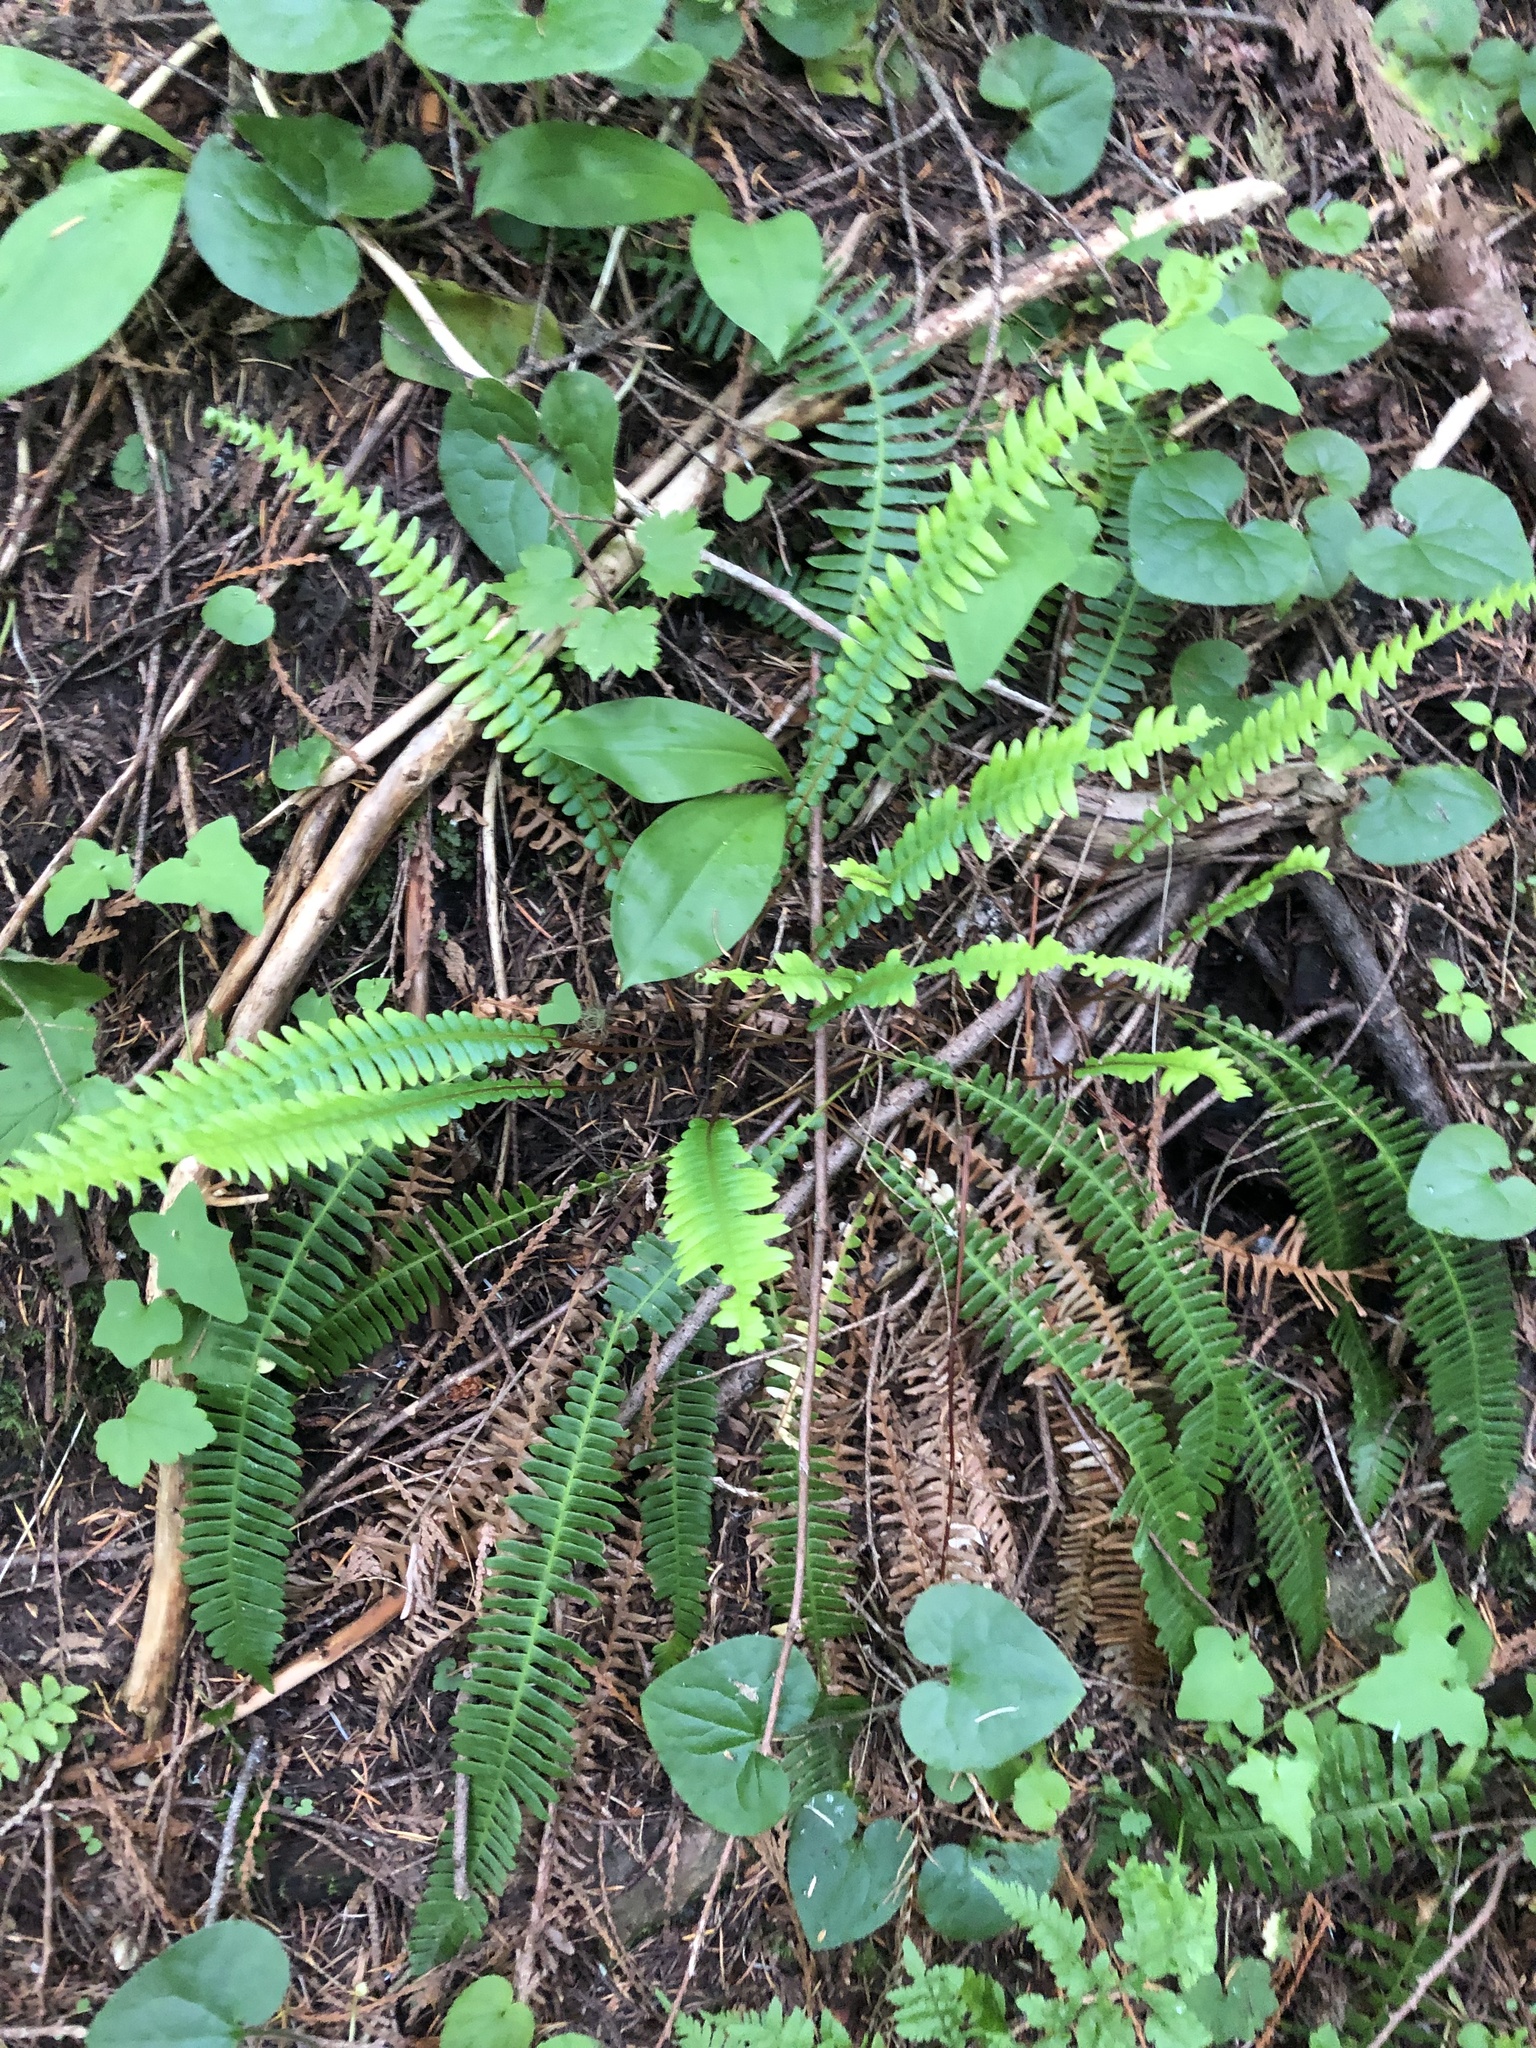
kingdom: Plantae
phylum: Tracheophyta
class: Polypodiopsida
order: Polypodiales
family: Blechnaceae
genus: Struthiopteris
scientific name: Struthiopteris spicant
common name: Deer fern
